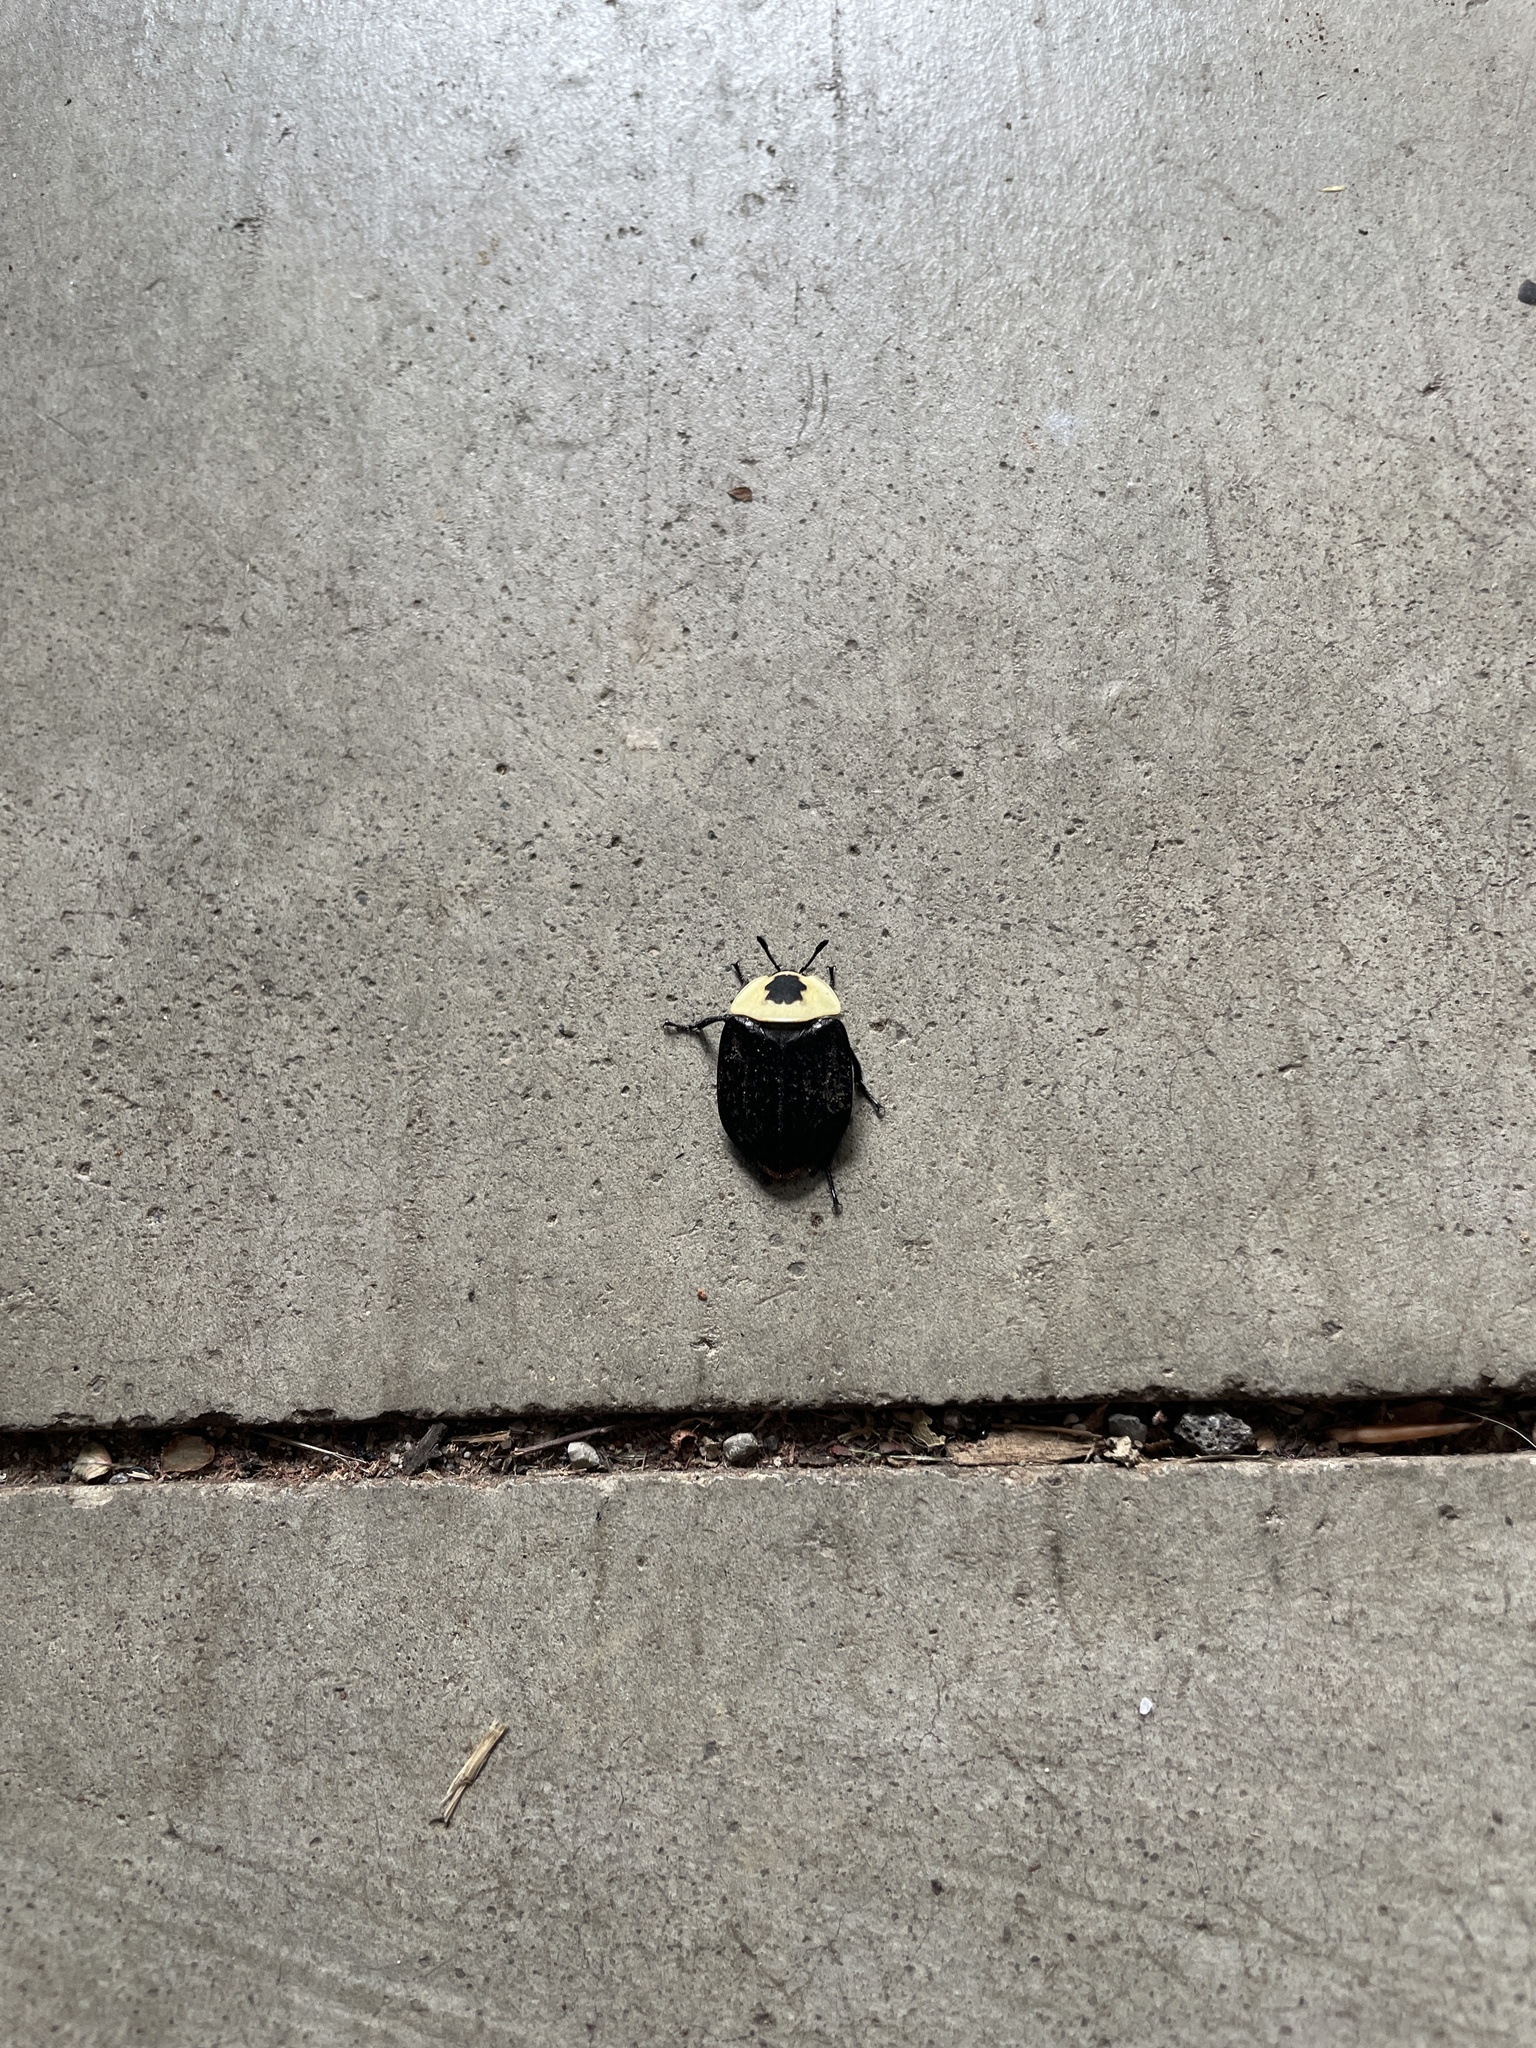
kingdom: Animalia
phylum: Arthropoda
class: Insecta
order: Coleoptera
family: Staphylinidae
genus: Necrophila
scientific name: Necrophila americana
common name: American carrion beetle
